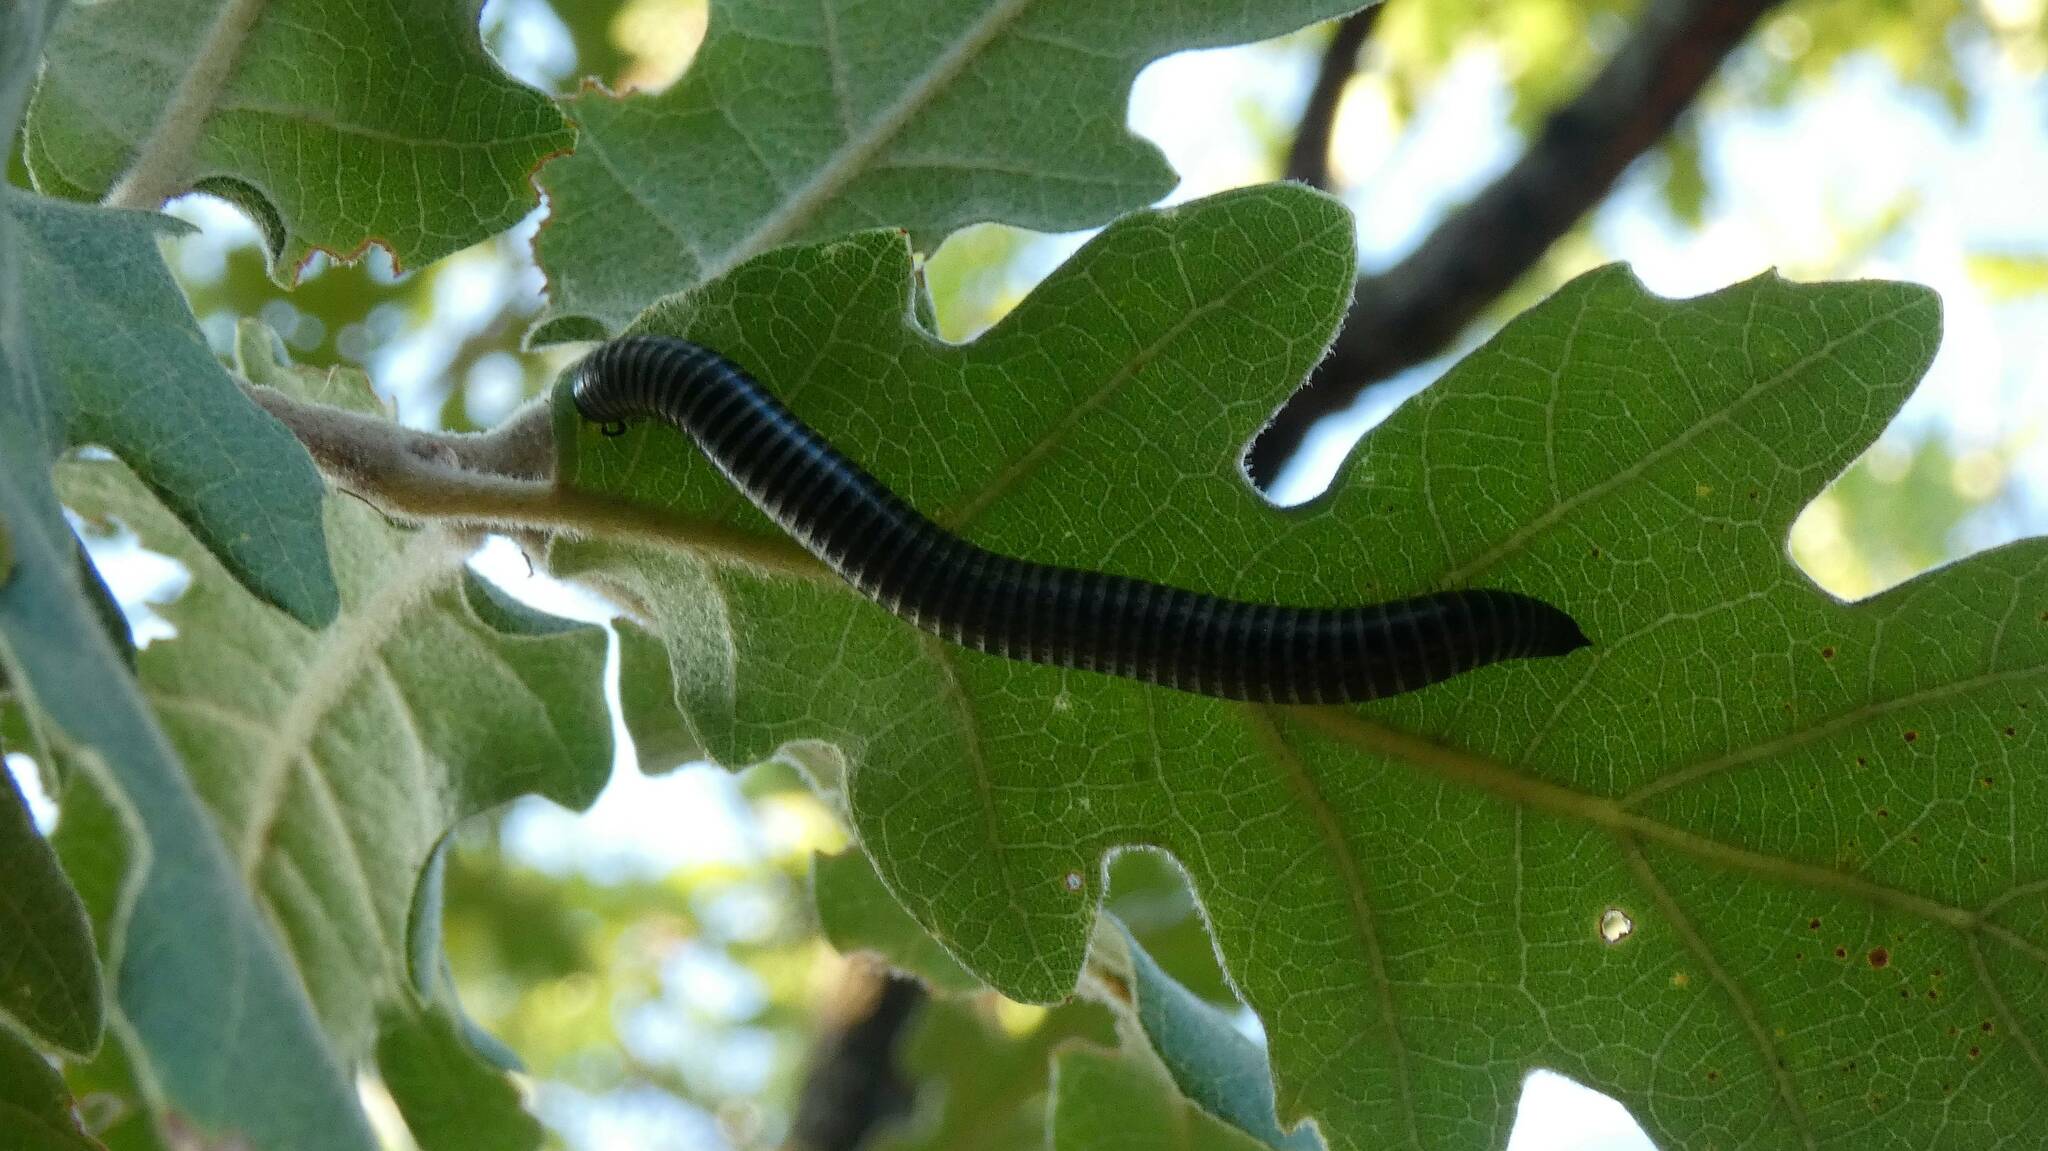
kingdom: Animalia
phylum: Arthropoda
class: Diplopoda
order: Julida
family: Julidae
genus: Ommatoiulus
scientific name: Ommatoiulus sabulosus
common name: Striped millipede
